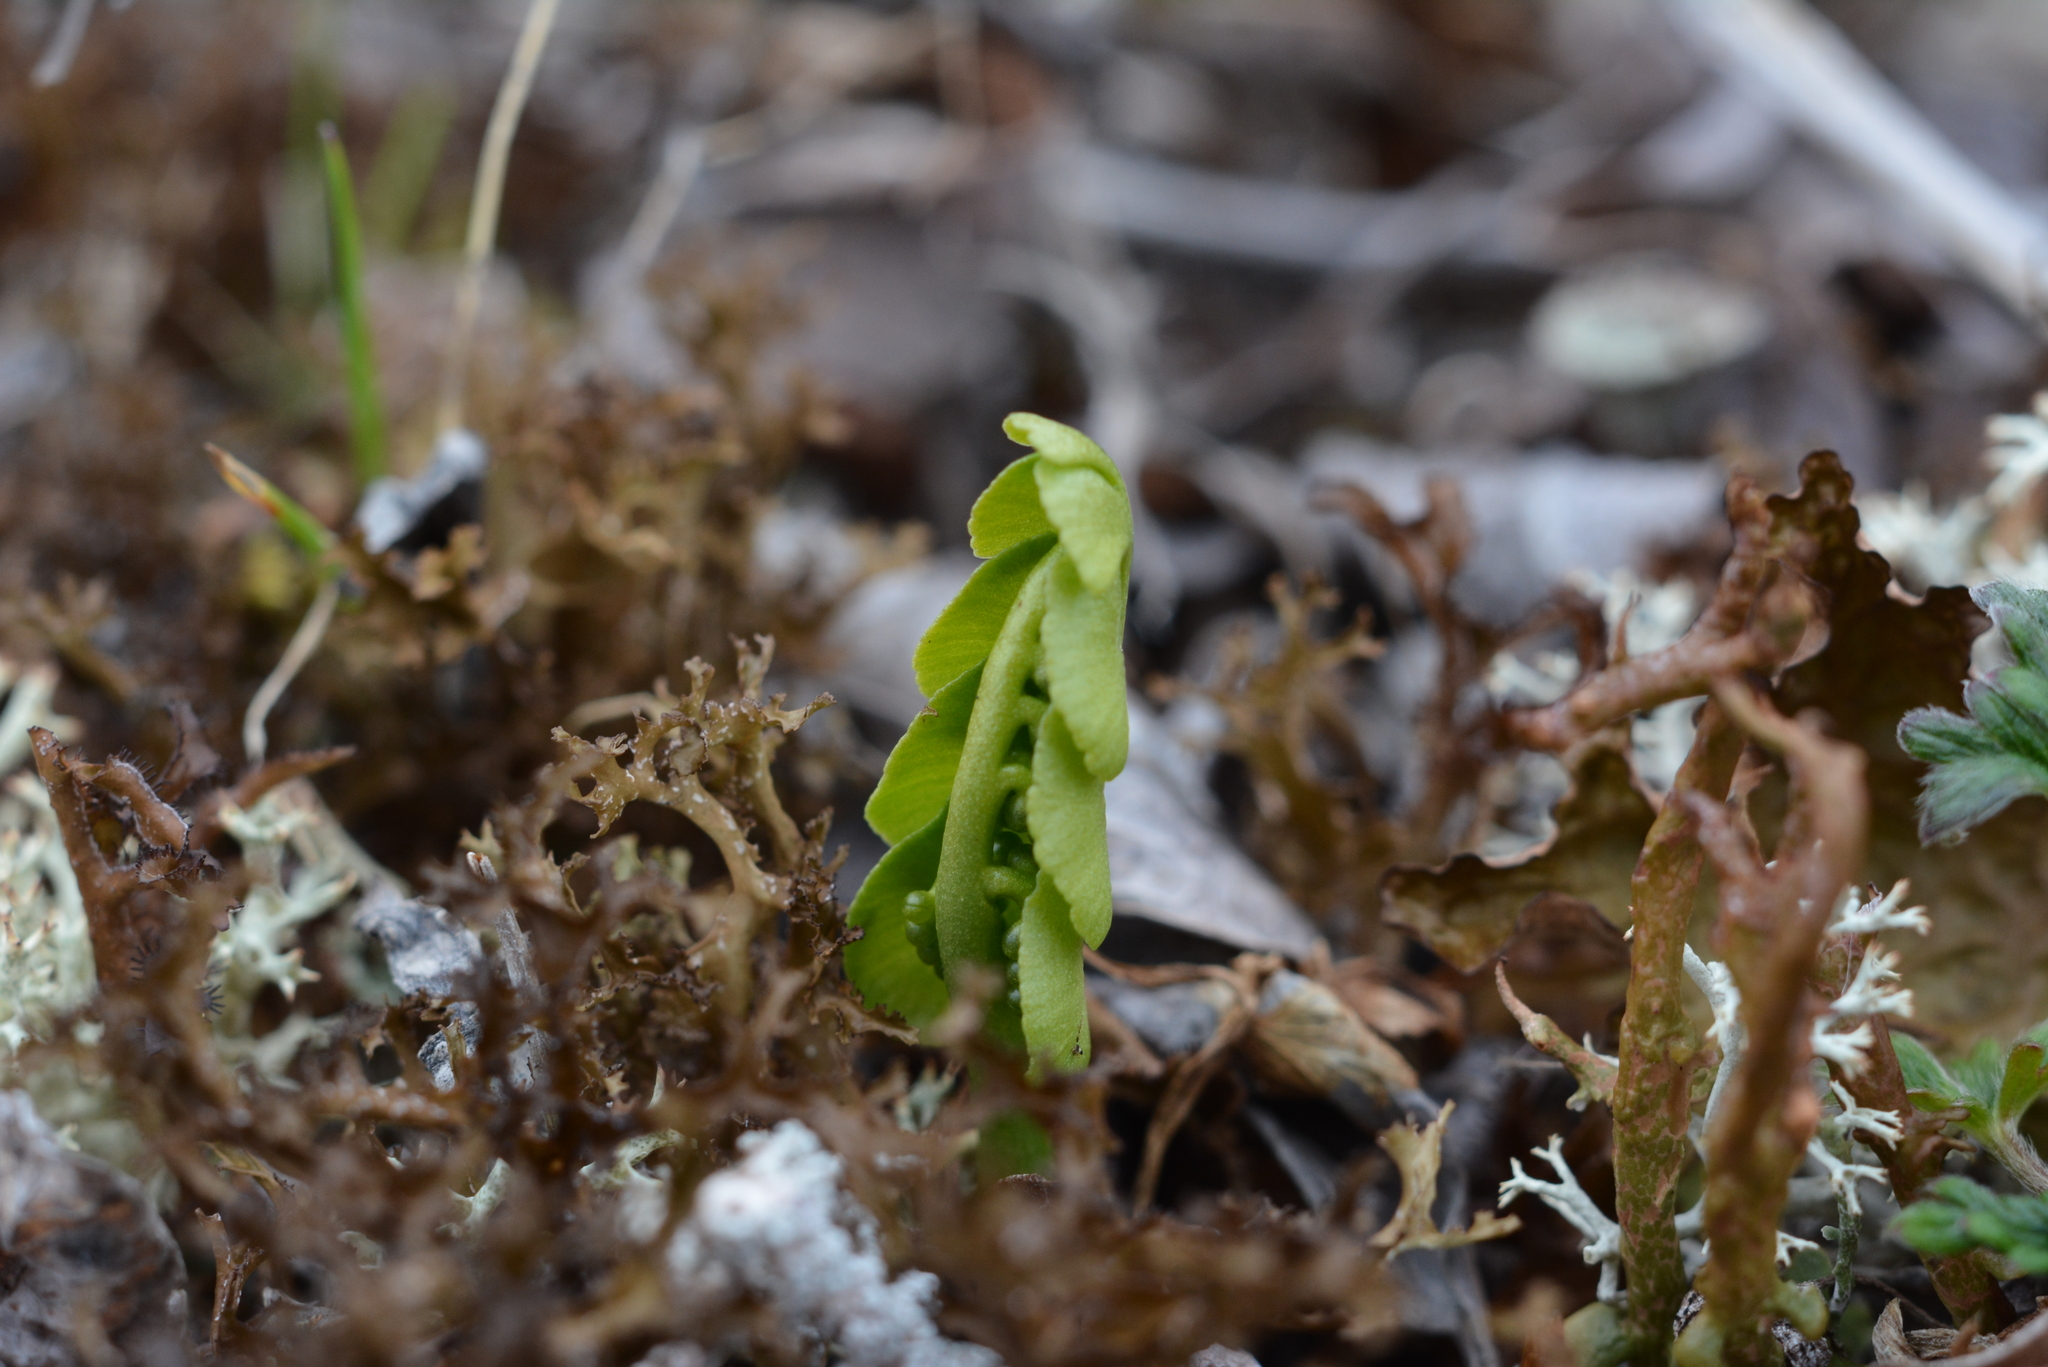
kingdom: Plantae
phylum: Tracheophyta
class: Polypodiopsida
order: Ophioglossales
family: Ophioglossaceae
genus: Botrychium
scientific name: Botrychium lunaria
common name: Moonwort
